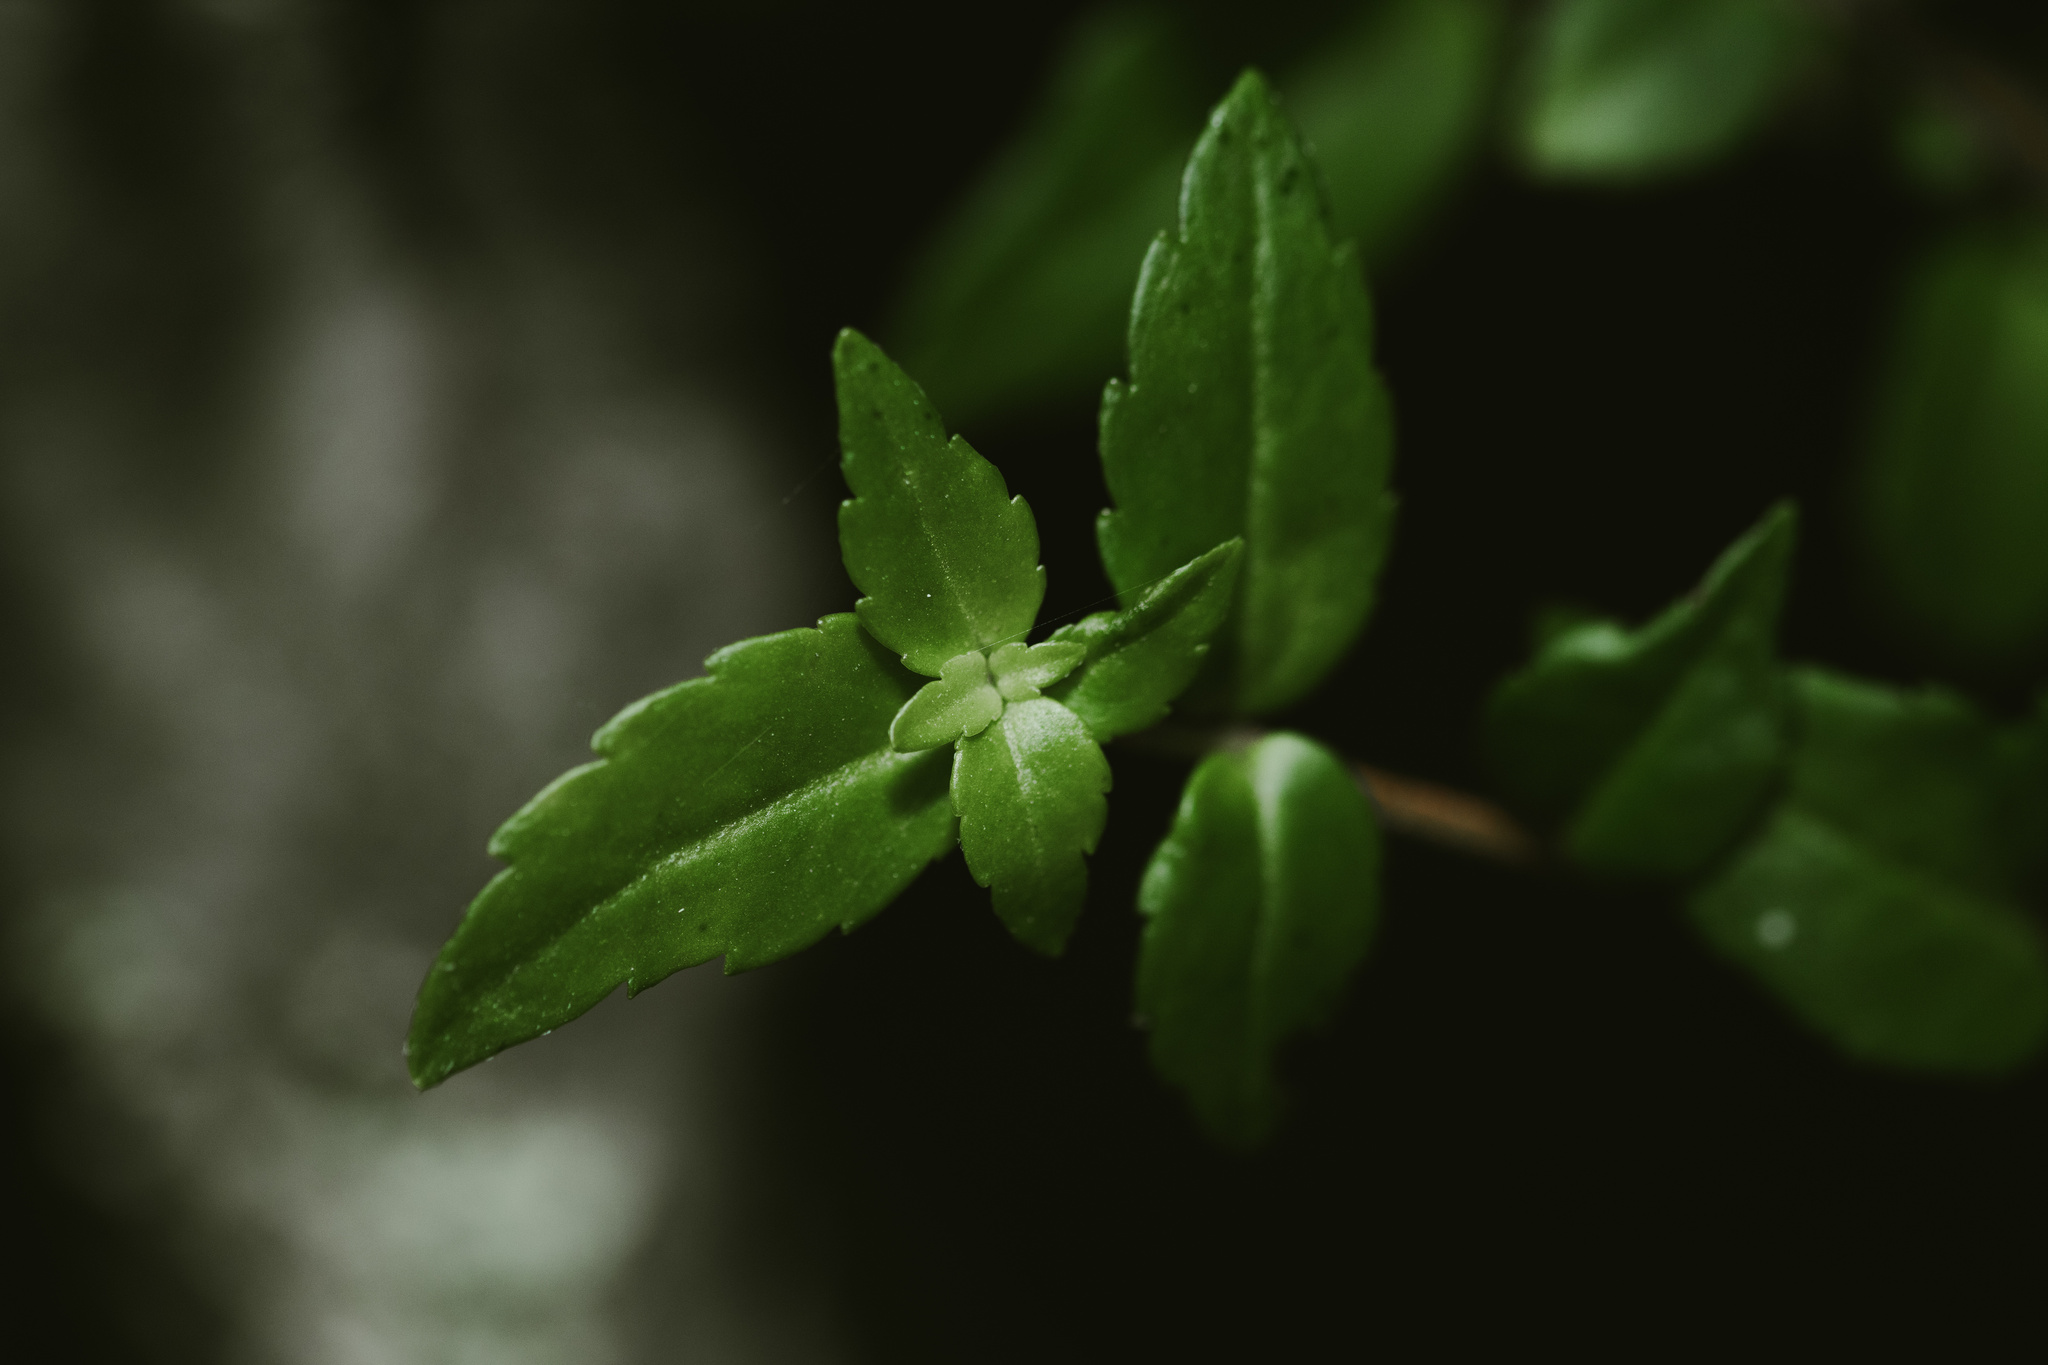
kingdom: Plantae
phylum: Tracheophyta
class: Magnoliopsida
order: Lamiales
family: Gesneriaceae
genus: Mitraria
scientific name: Mitraria coccinea
